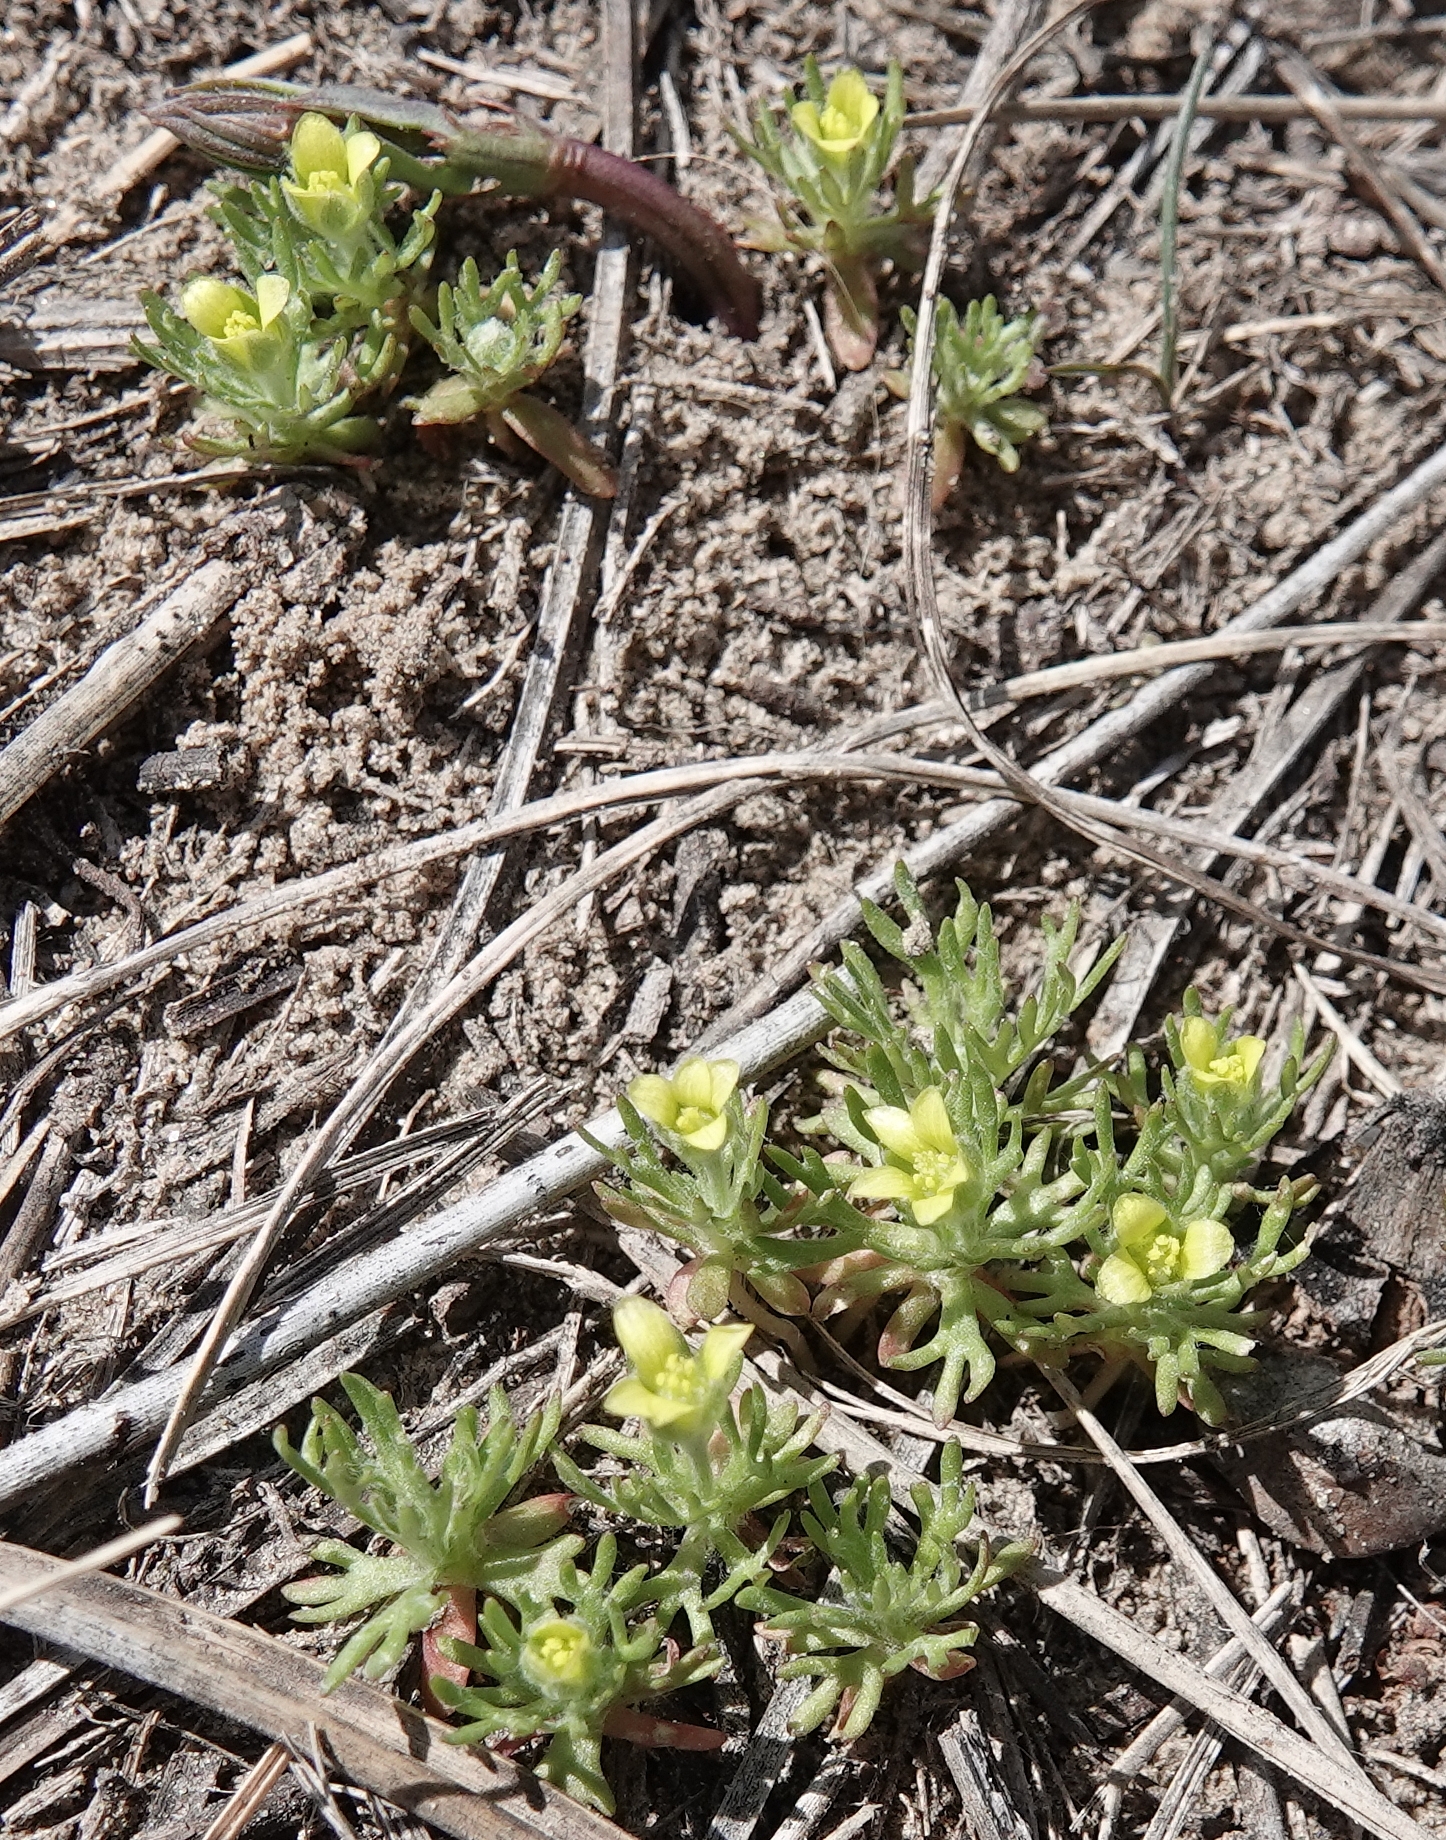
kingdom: Plantae
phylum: Tracheophyta
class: Magnoliopsida
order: Ranunculales
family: Ranunculaceae
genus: Ceratocephala
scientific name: Ceratocephala orthoceras
